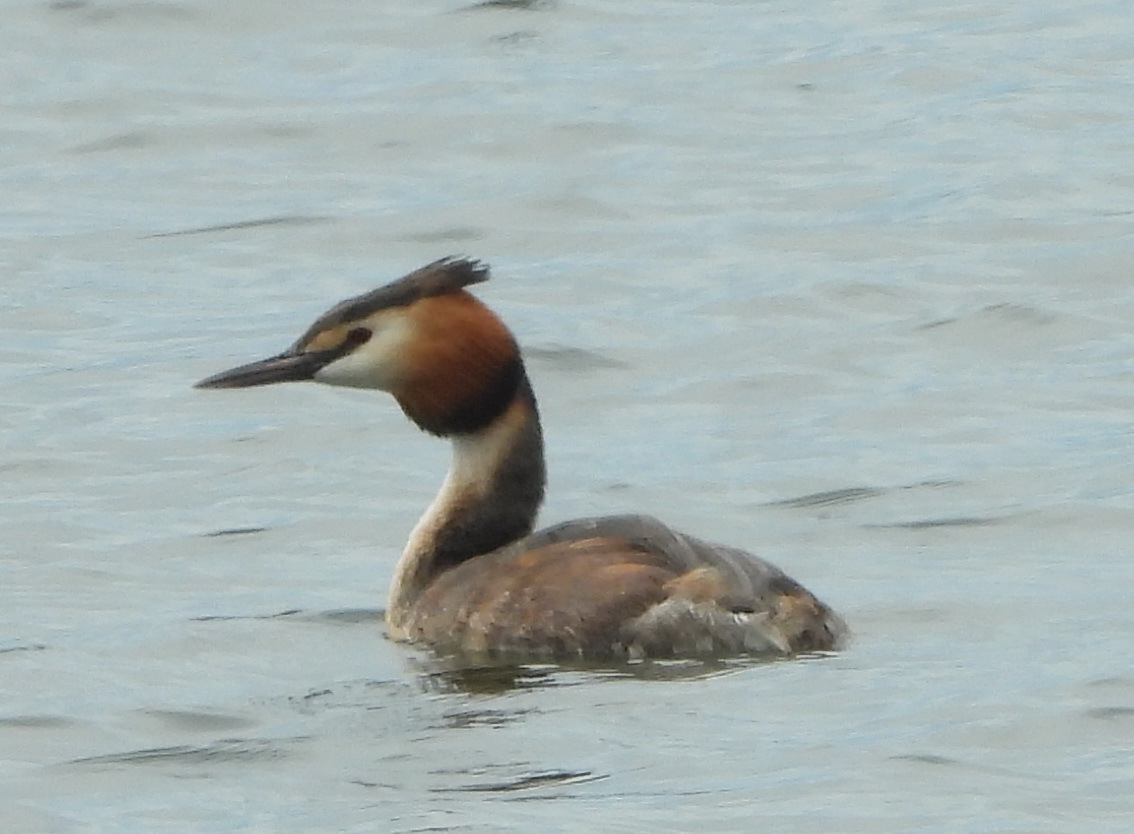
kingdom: Animalia
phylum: Chordata
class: Aves
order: Podicipediformes
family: Podicipedidae
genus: Podiceps
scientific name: Podiceps cristatus
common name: Great crested grebe
